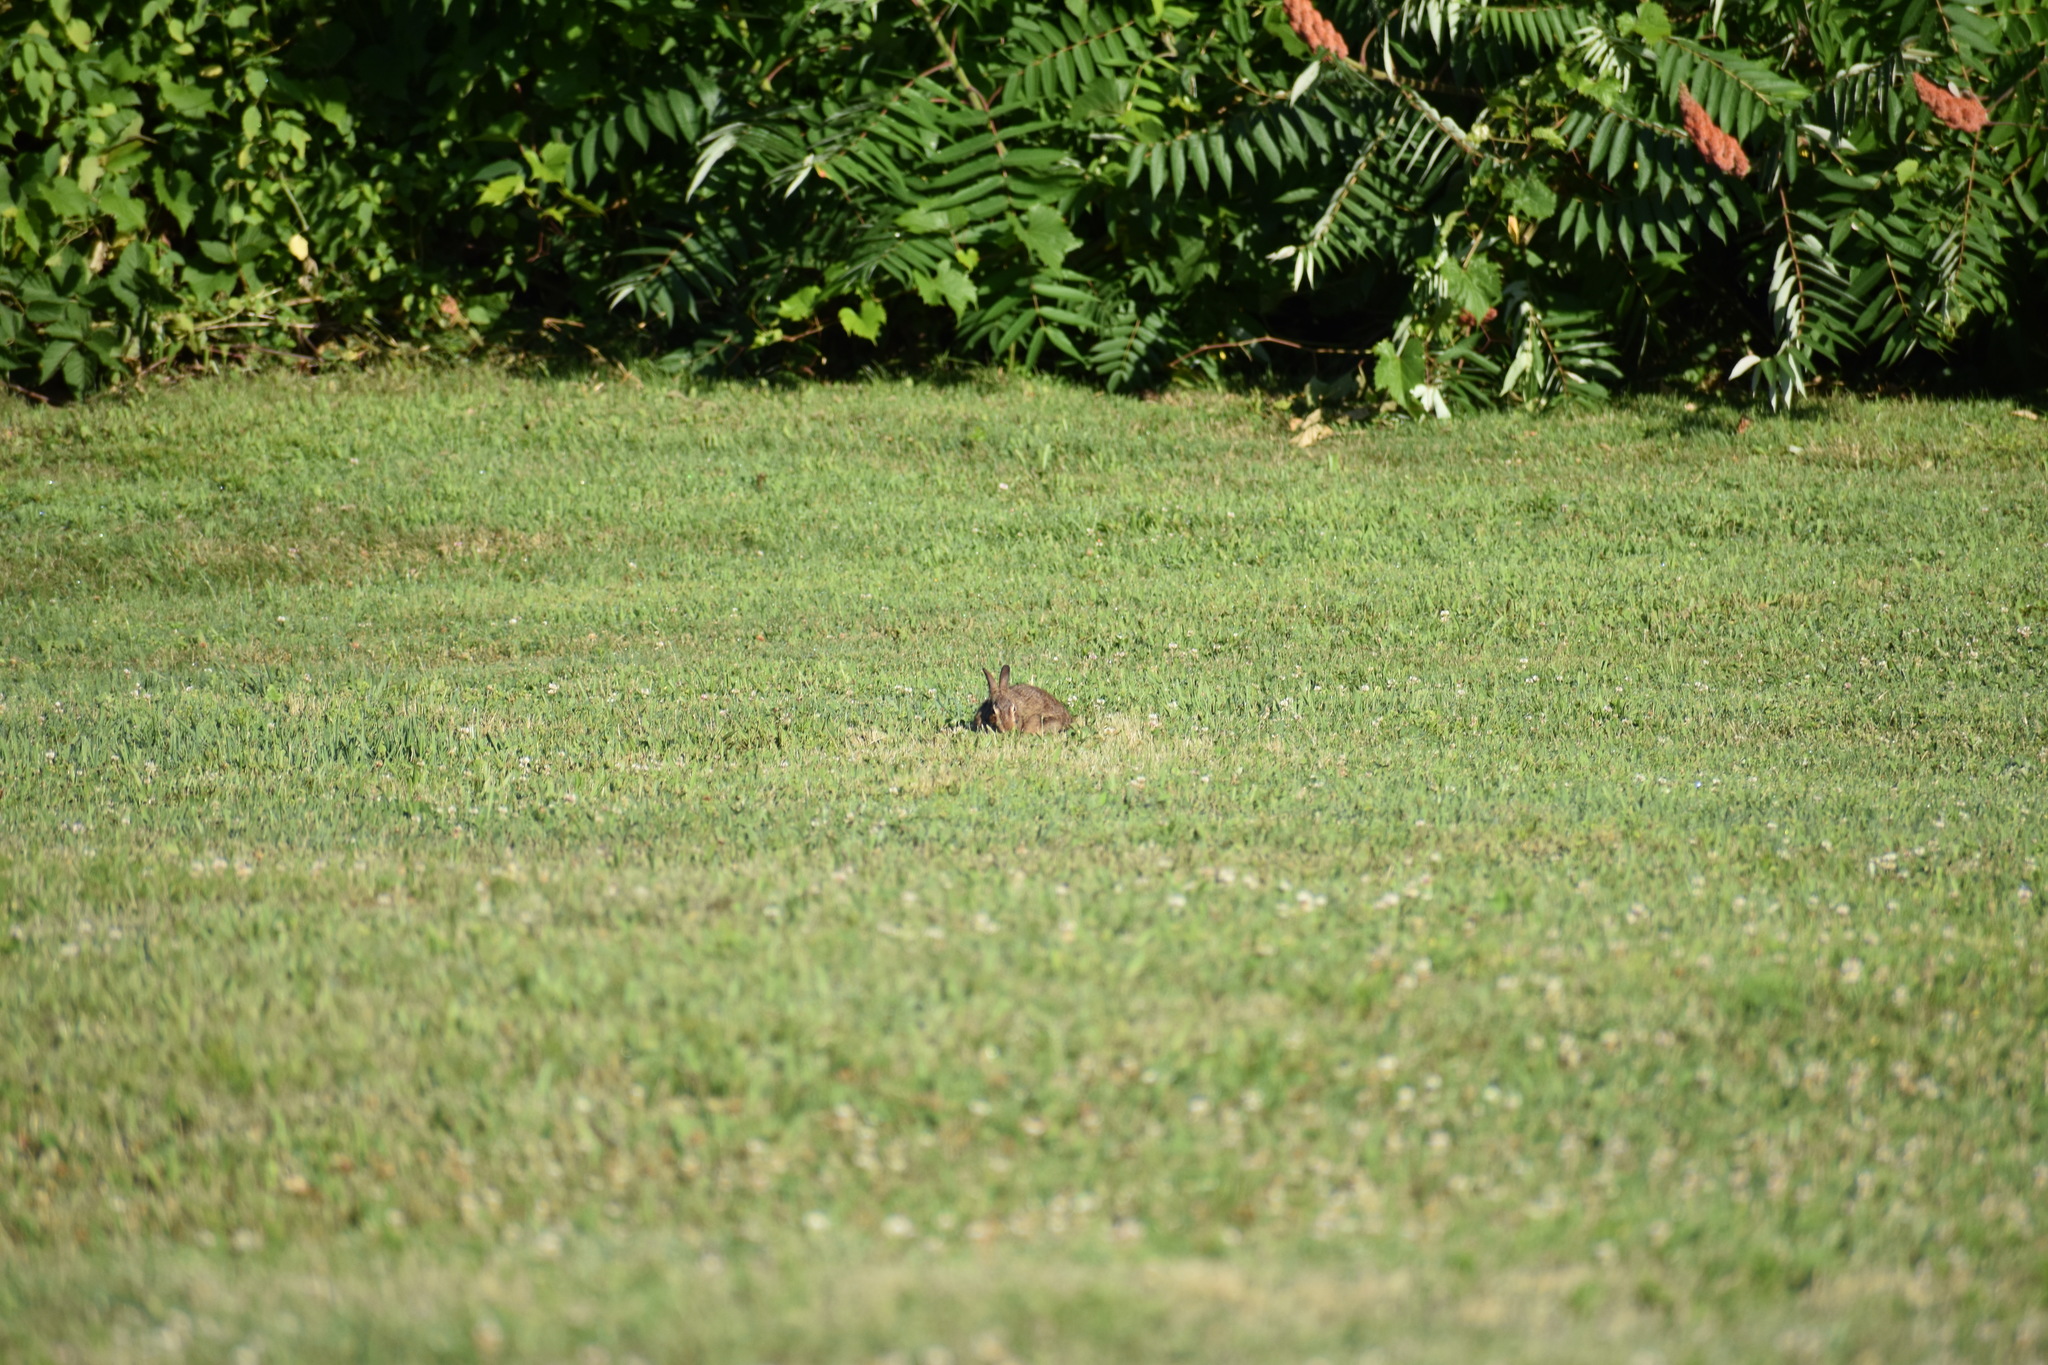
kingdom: Animalia
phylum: Chordata
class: Mammalia
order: Lagomorpha
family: Leporidae
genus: Sylvilagus
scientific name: Sylvilagus floridanus
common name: Eastern cottontail
